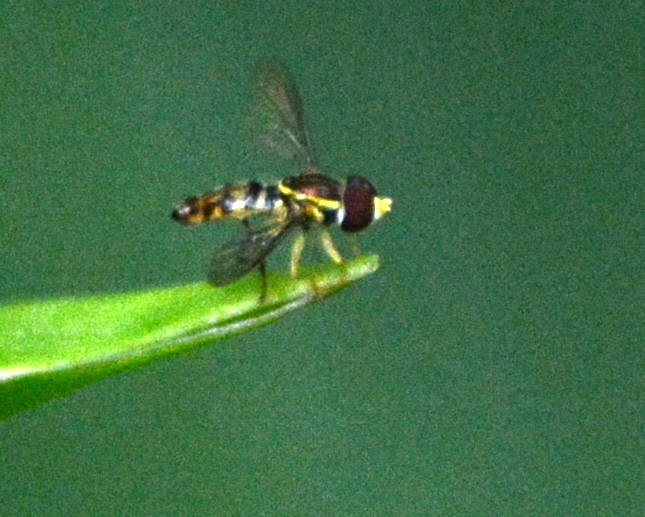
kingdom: Animalia
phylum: Arthropoda
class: Insecta
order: Diptera
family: Syrphidae
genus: Toxomerus
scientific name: Toxomerus geminatus
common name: Eastern calligrapher
